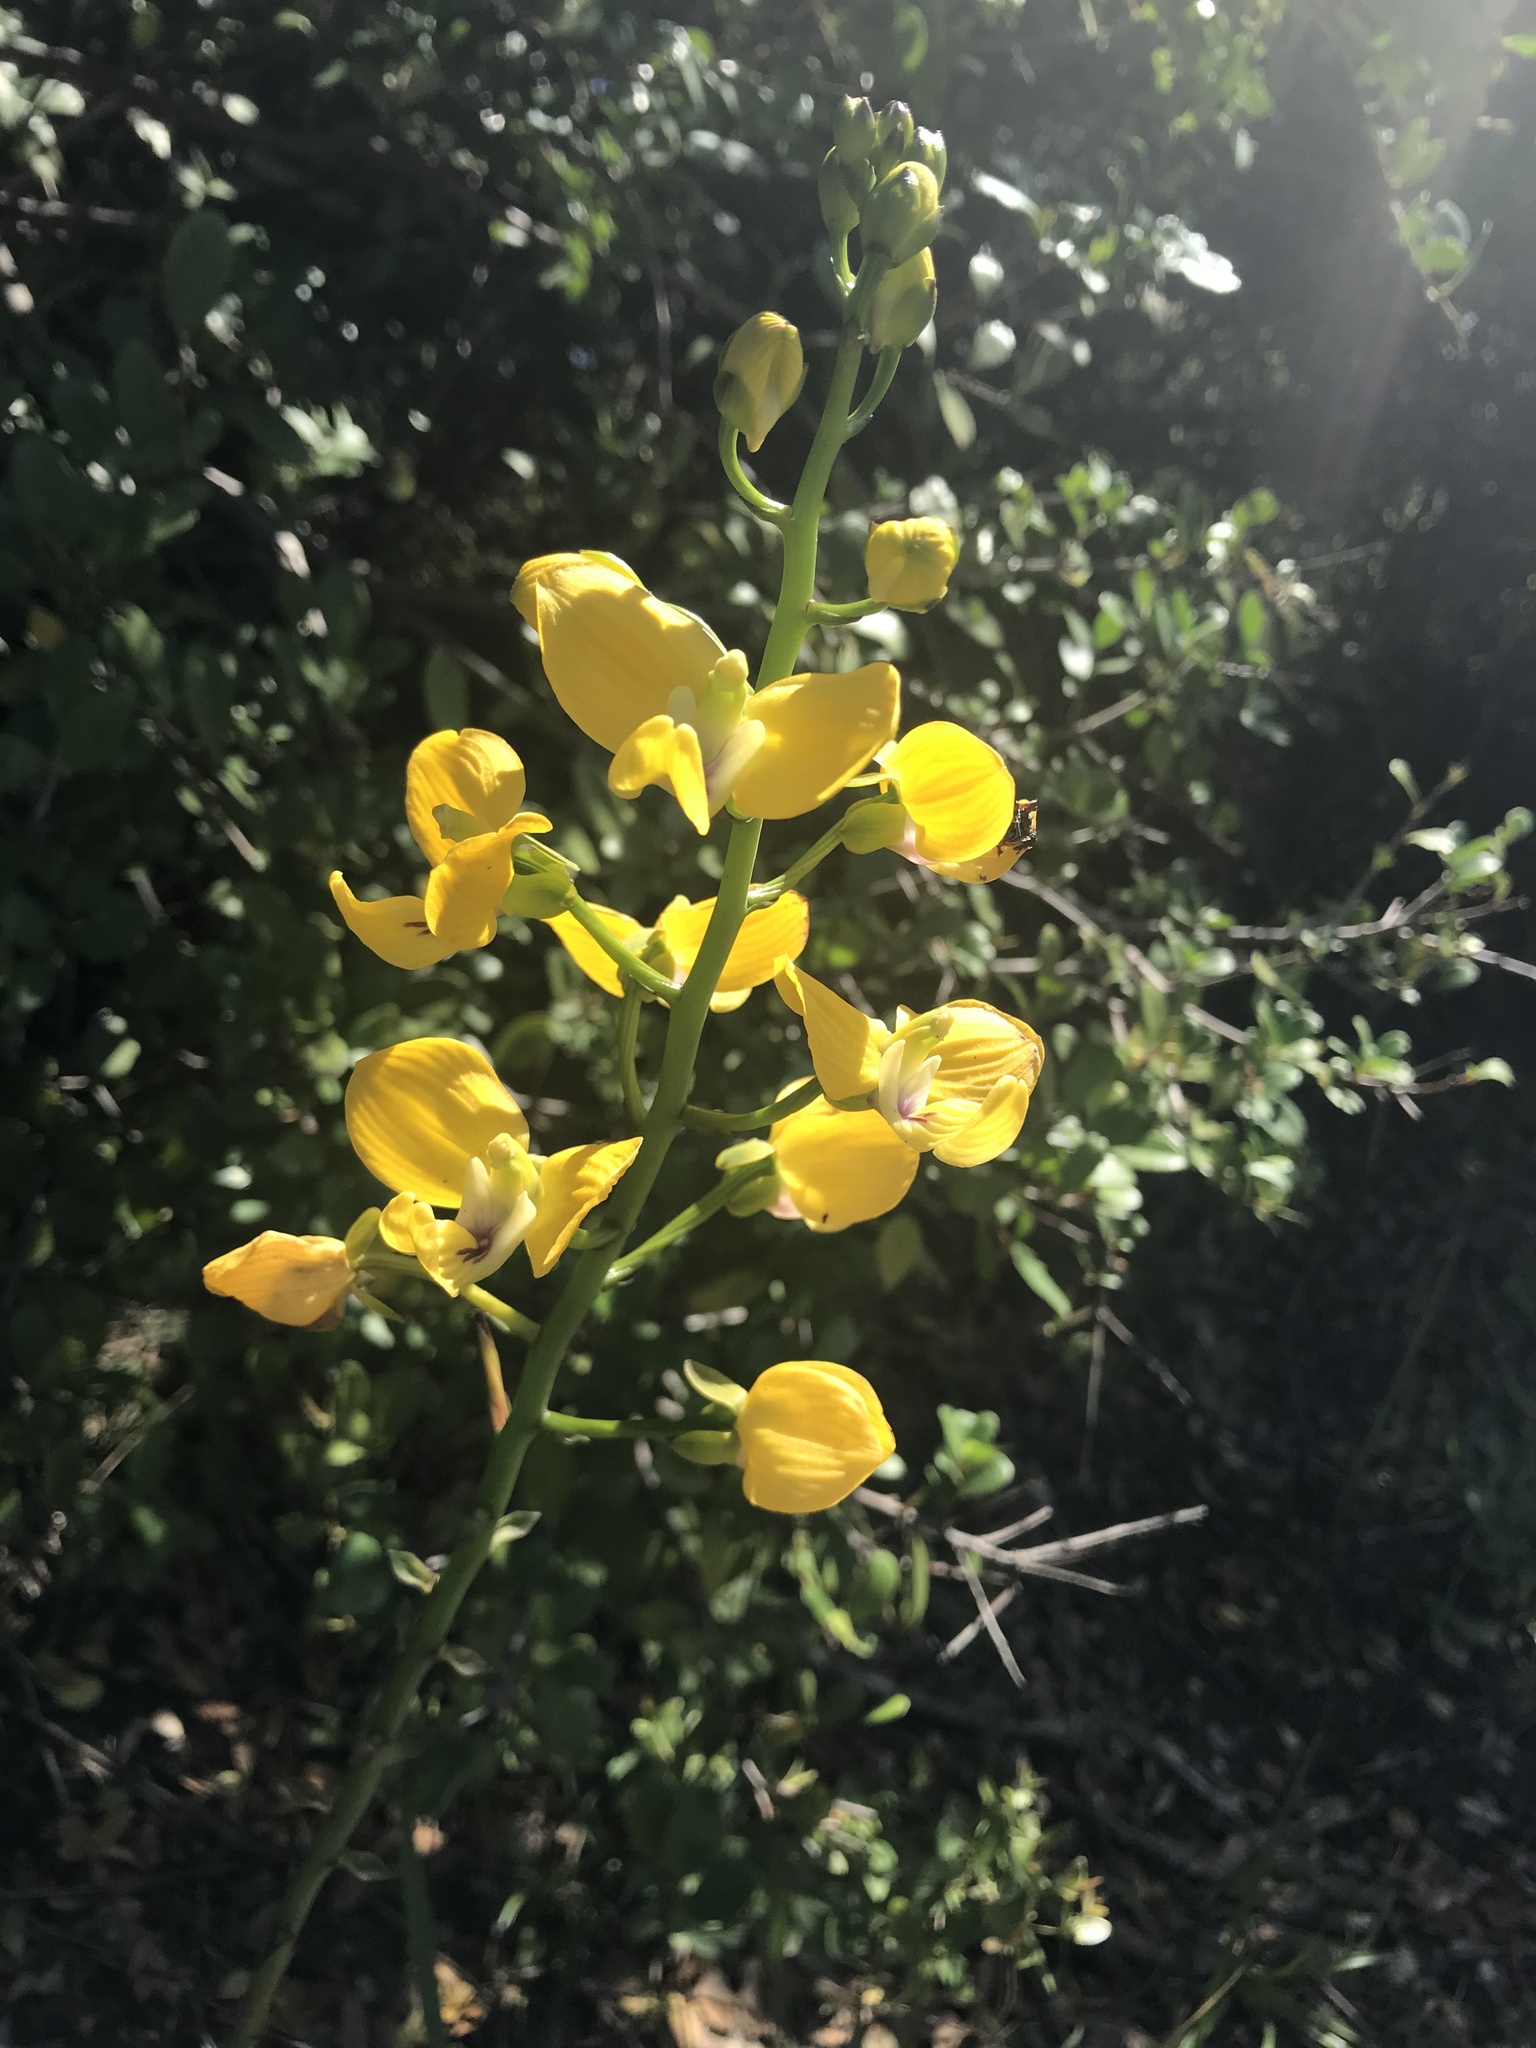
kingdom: Plantae
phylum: Tracheophyta
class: Liliopsida
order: Asparagales
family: Orchidaceae
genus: Eulophia
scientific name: Eulophia speciosa
